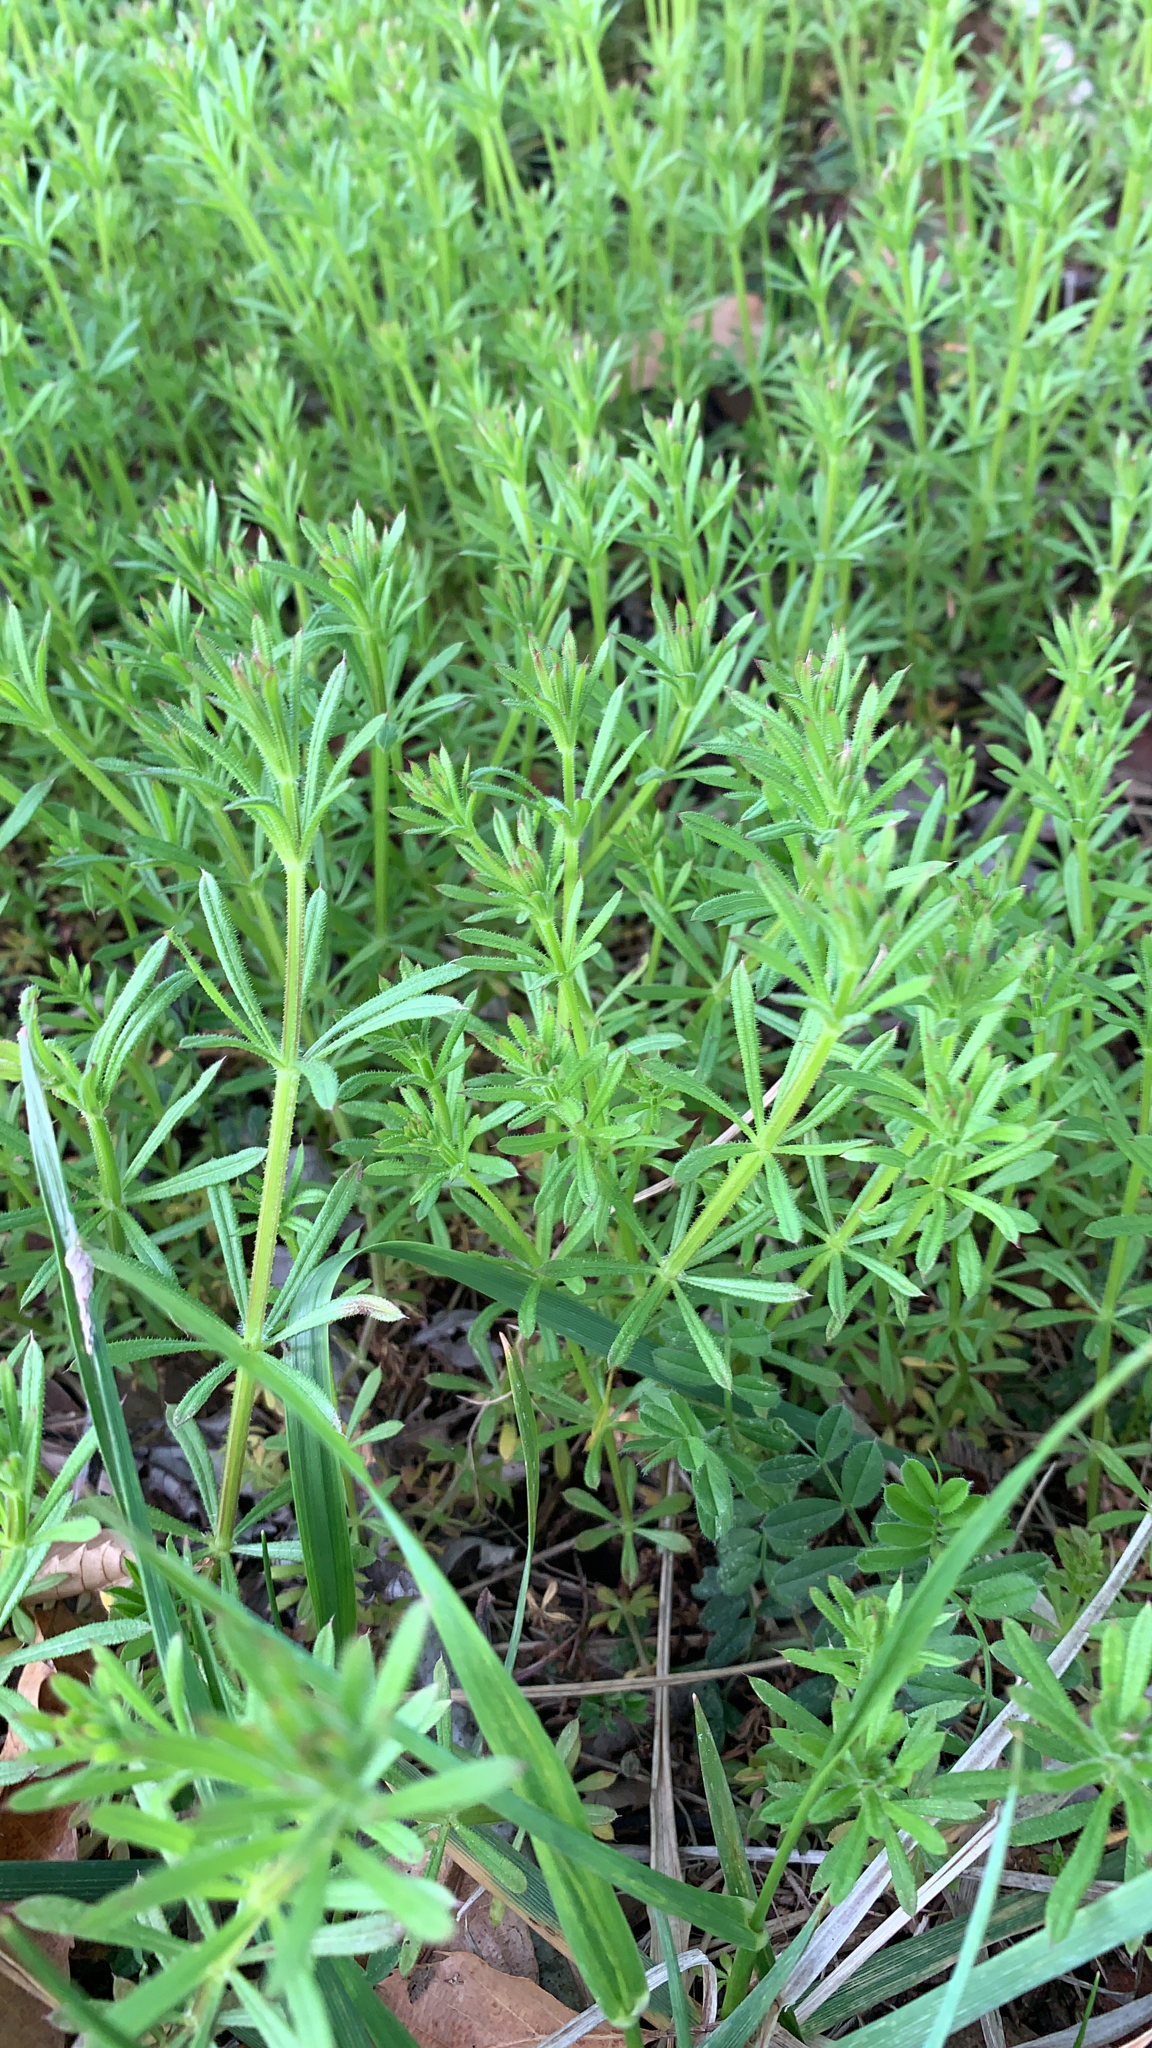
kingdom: Plantae
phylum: Tracheophyta
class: Magnoliopsida
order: Gentianales
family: Rubiaceae
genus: Galium
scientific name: Galium aparine
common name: Cleavers
